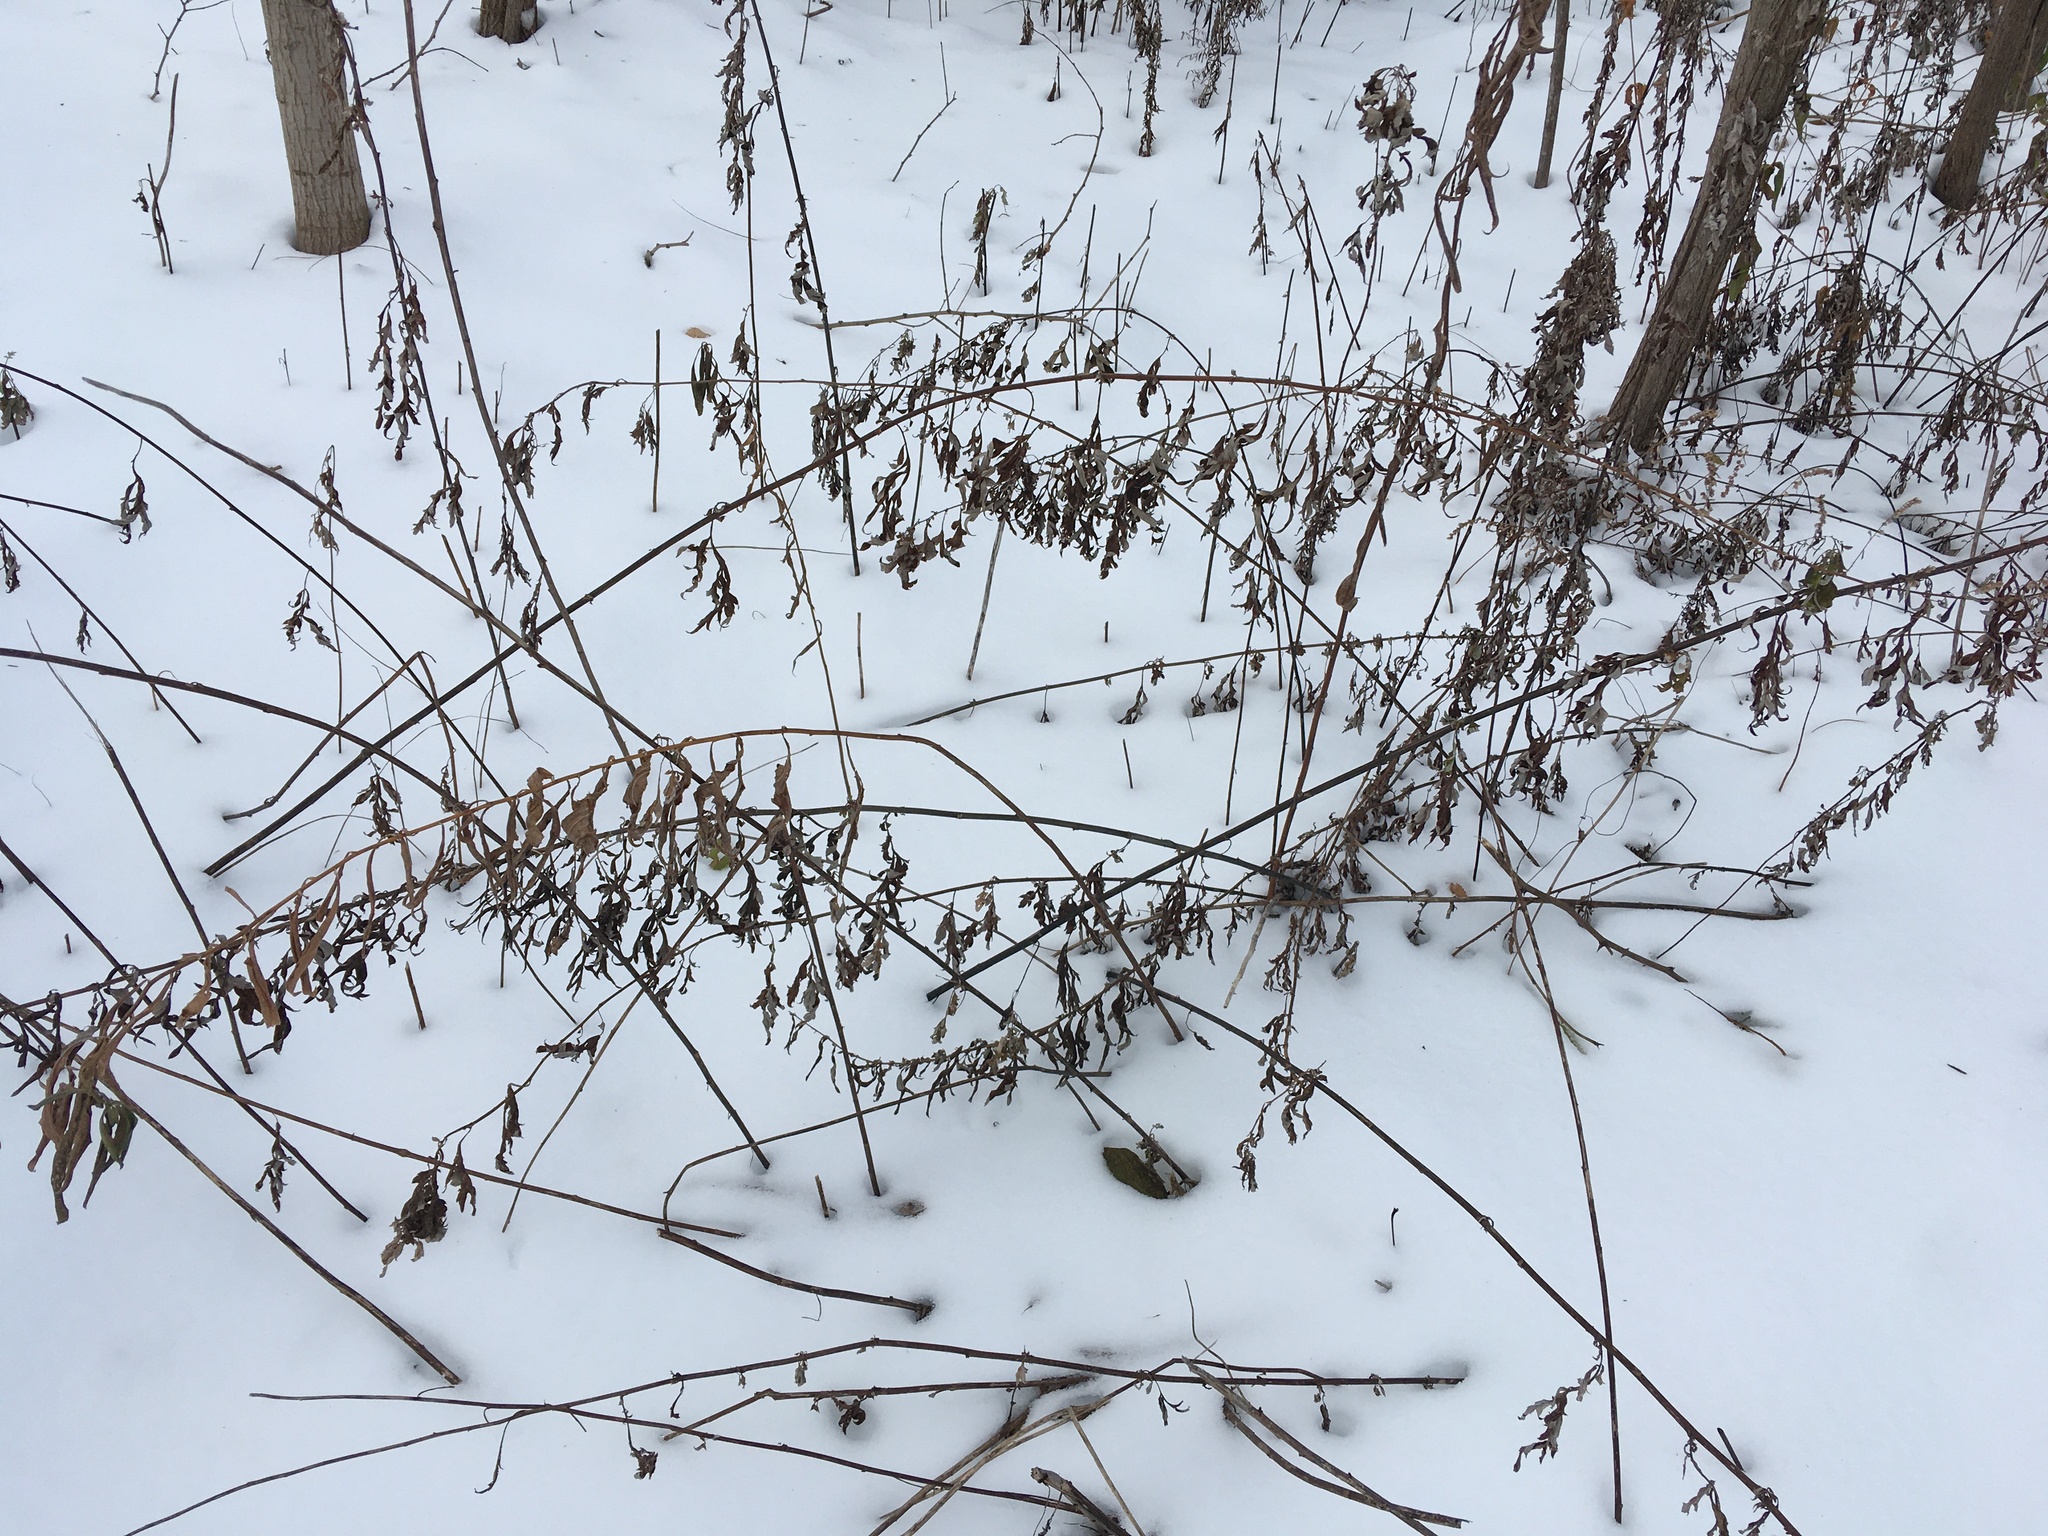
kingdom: Plantae
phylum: Tracheophyta
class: Magnoliopsida
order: Asterales
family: Asteraceae
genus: Artemisia
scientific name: Artemisia vulgaris
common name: Mugwort
